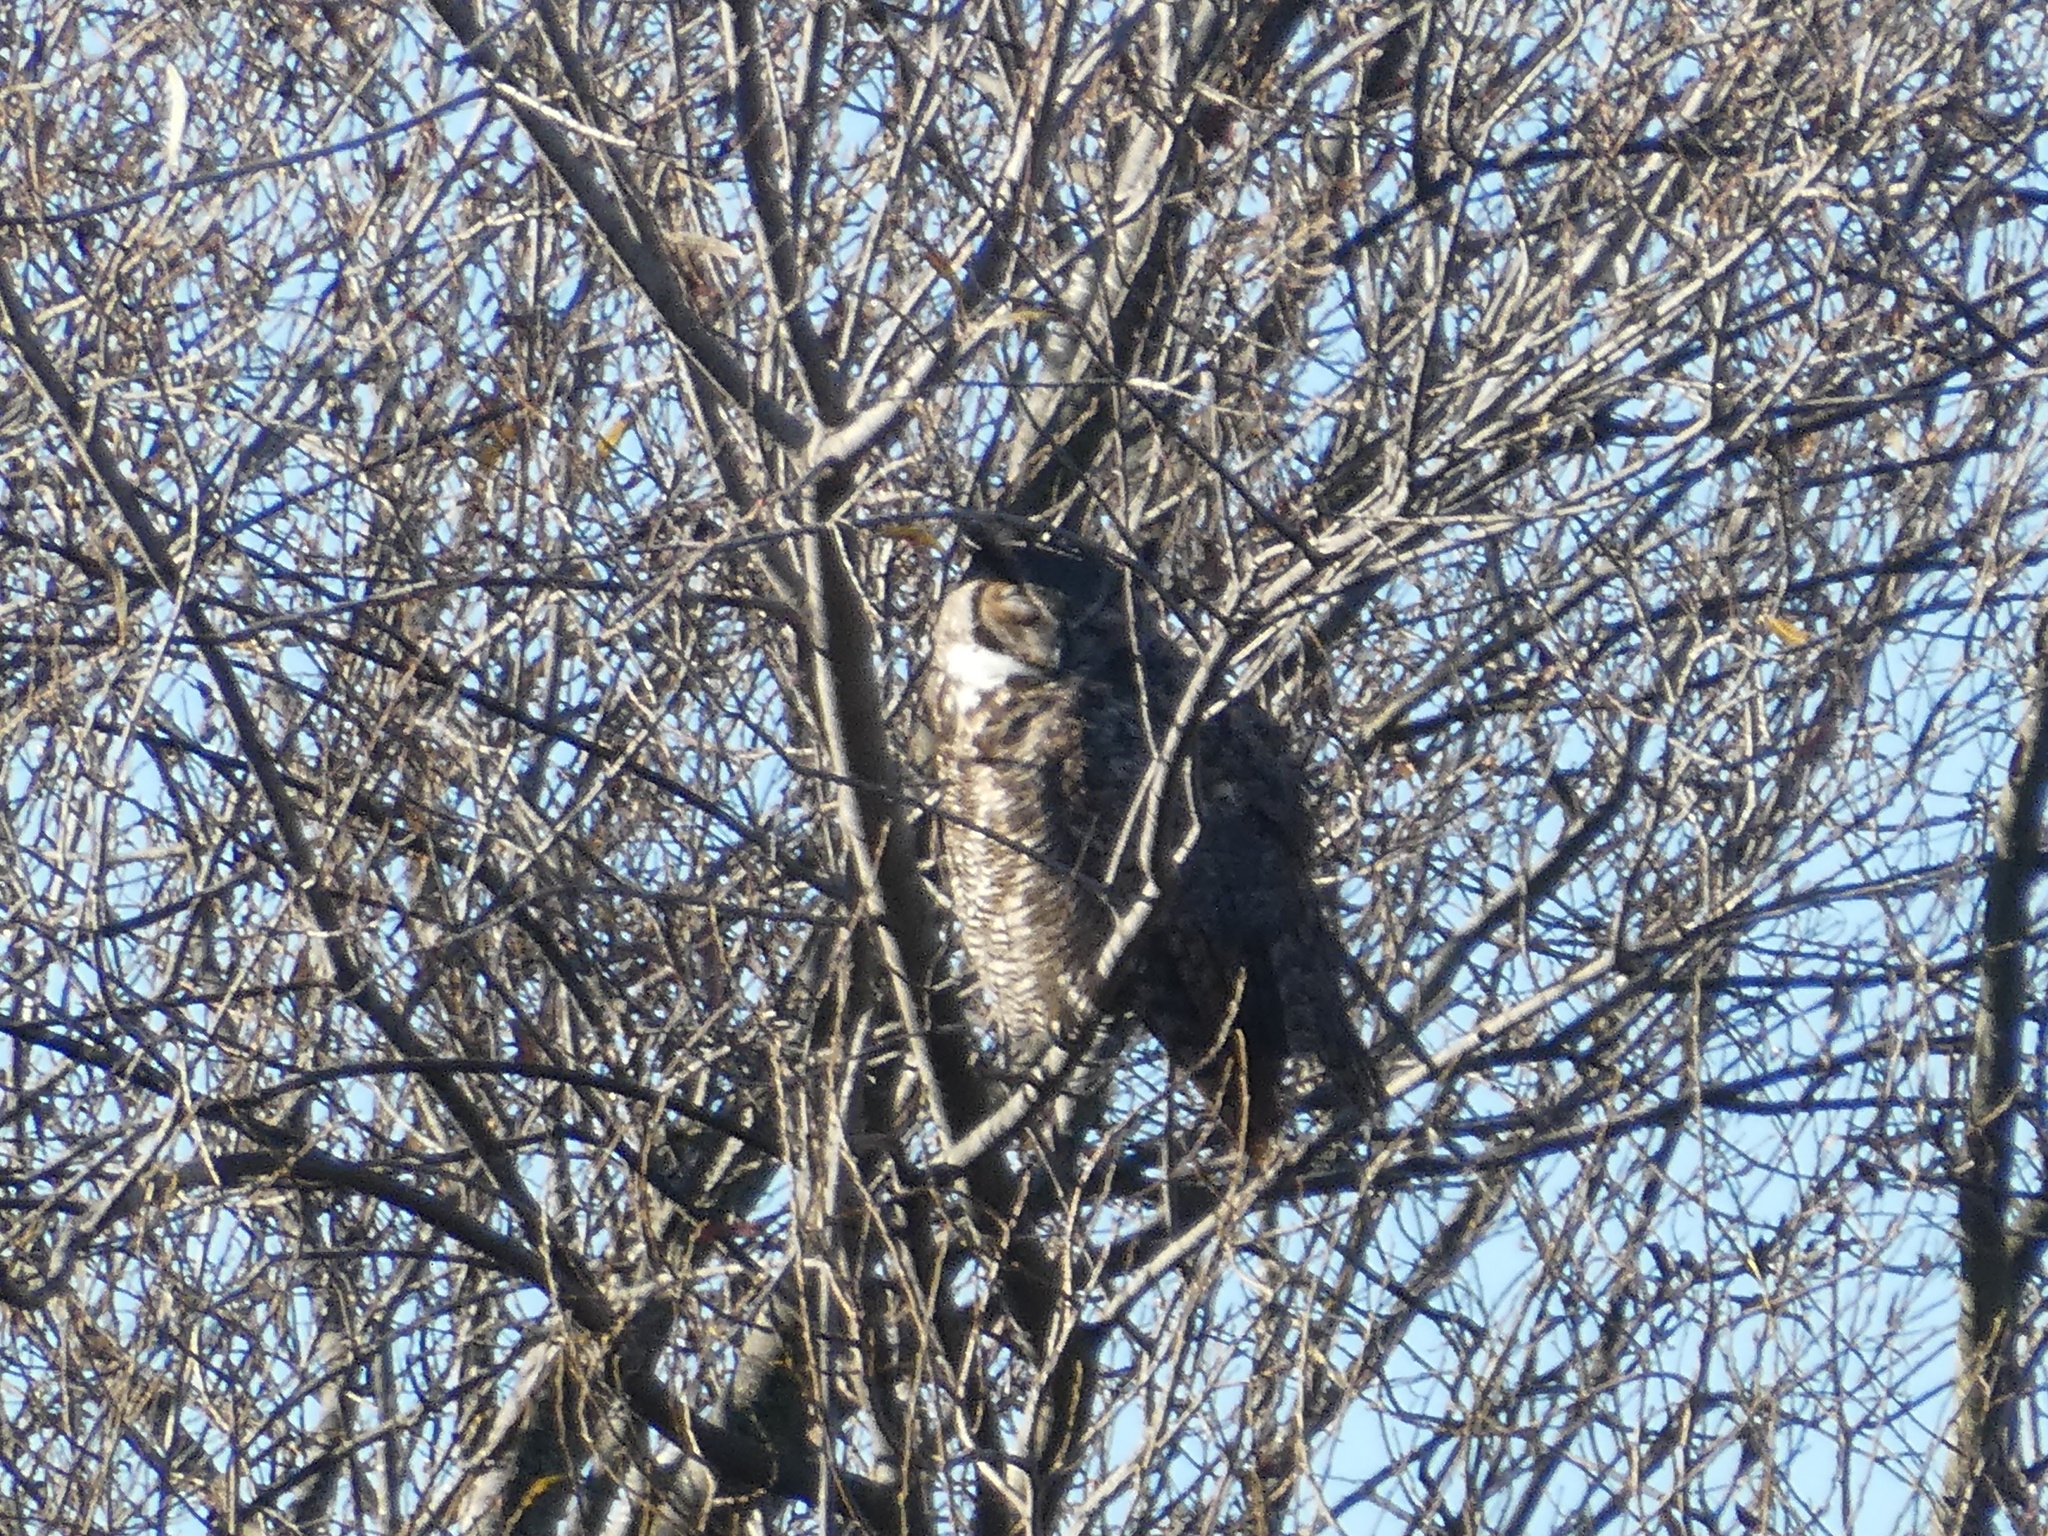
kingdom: Animalia
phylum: Chordata
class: Aves
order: Strigiformes
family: Strigidae
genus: Bubo
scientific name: Bubo virginianus
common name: Great horned owl
